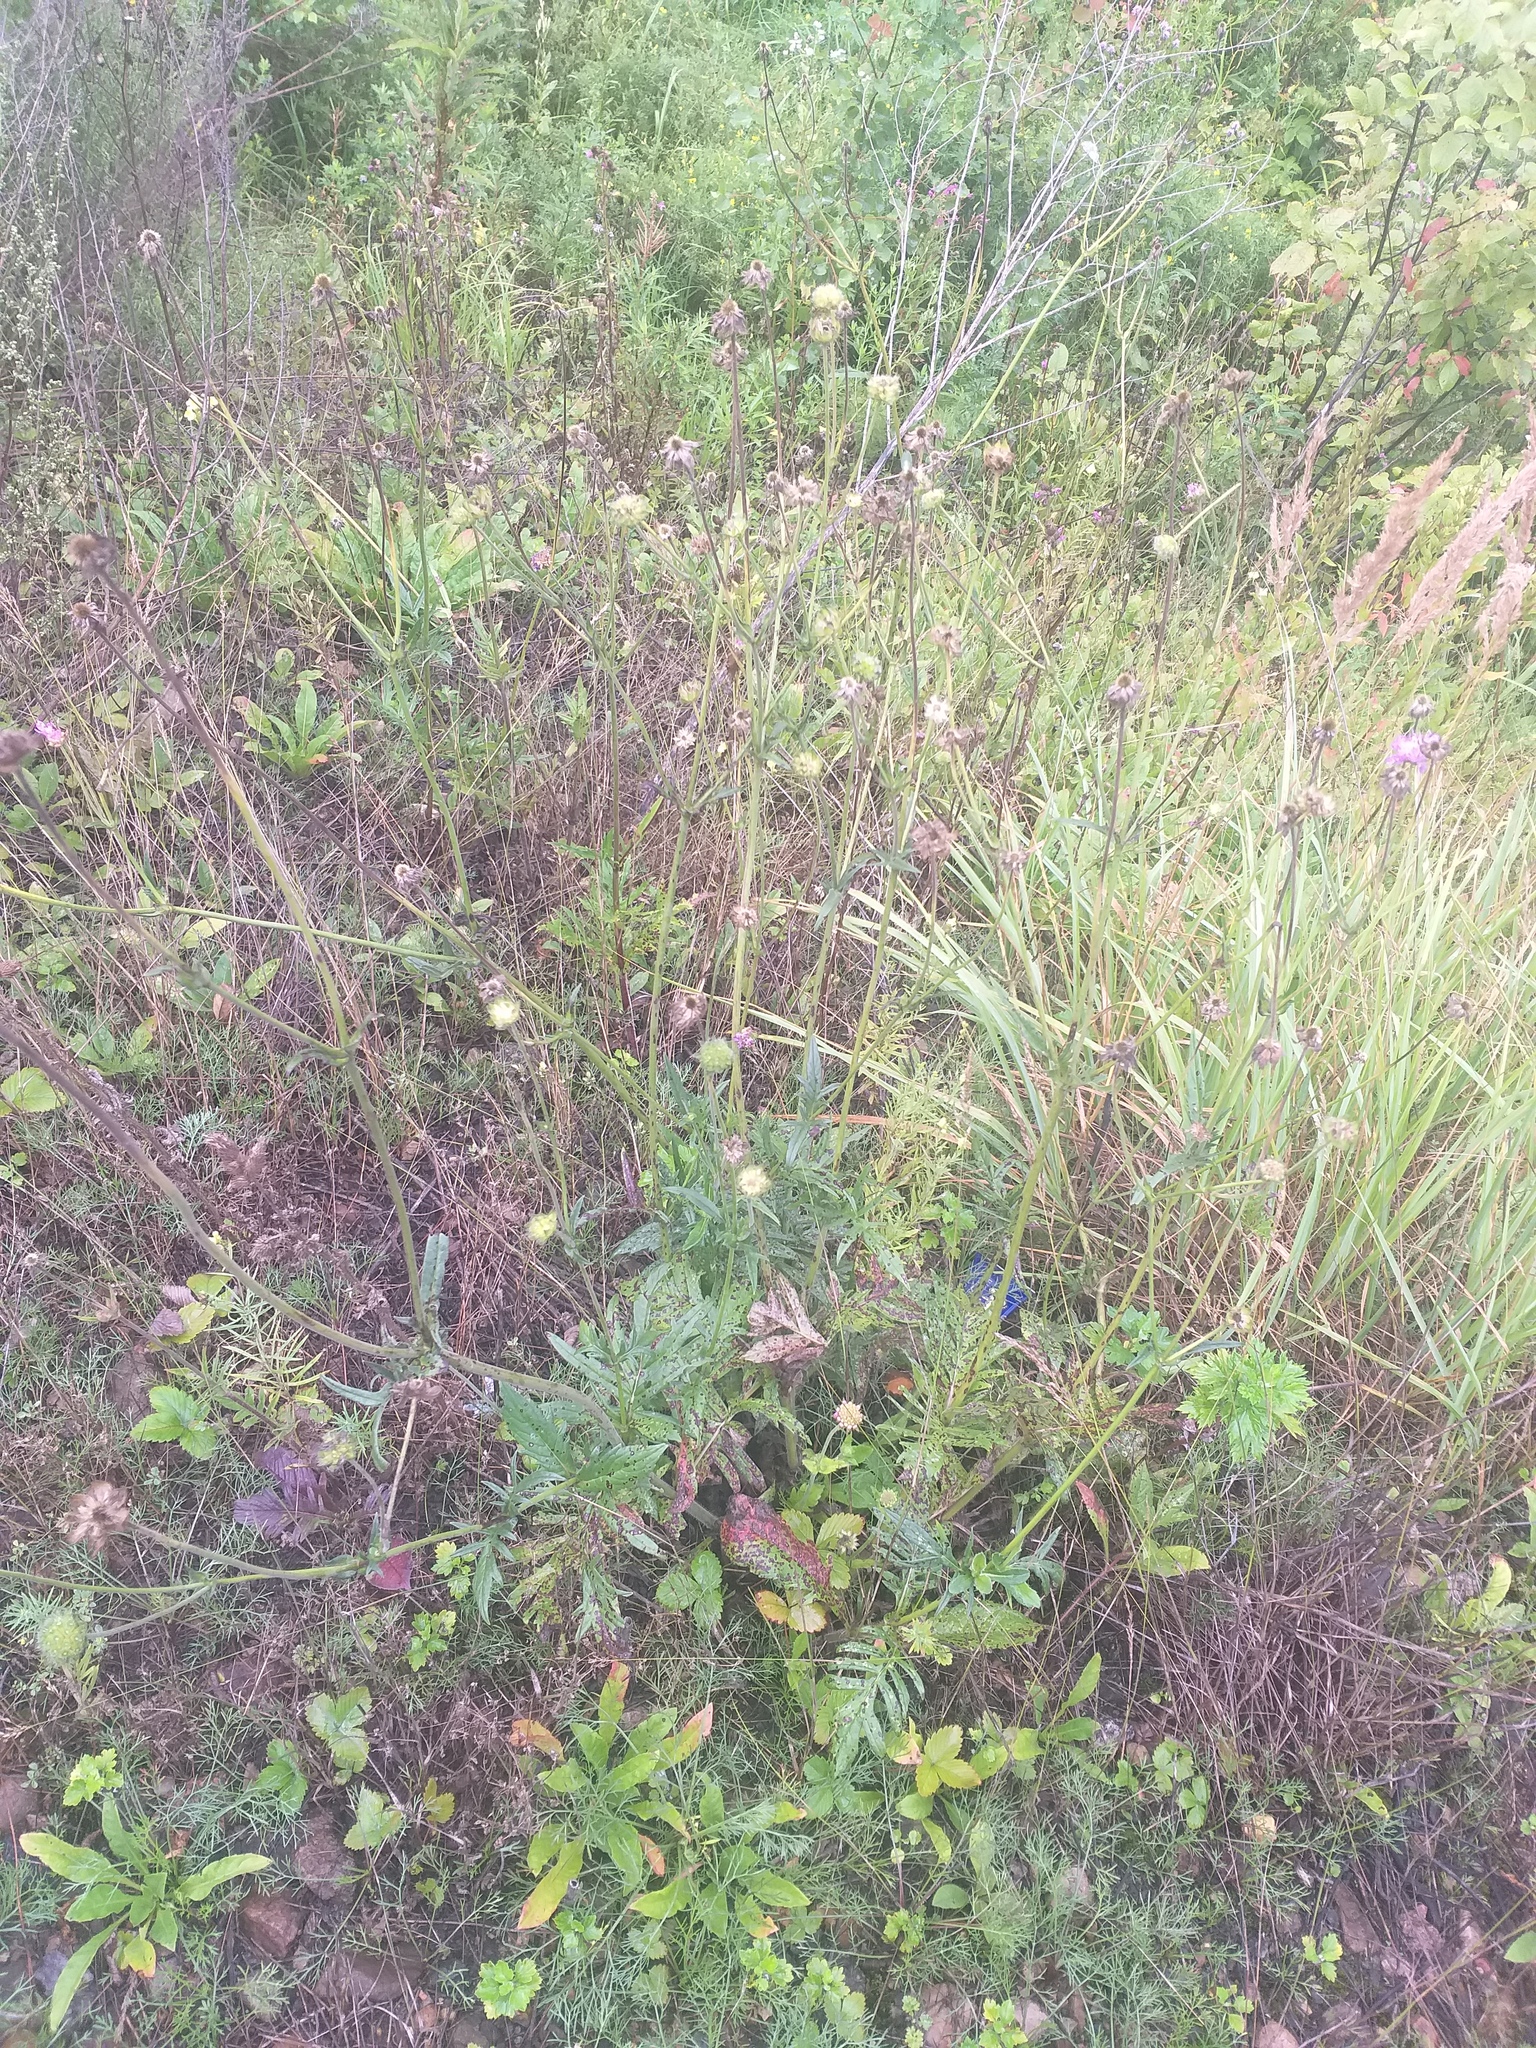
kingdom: Plantae
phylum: Tracheophyta
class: Magnoliopsida
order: Dipsacales
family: Caprifoliaceae
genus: Knautia
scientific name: Knautia arvensis
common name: Field scabiosa
